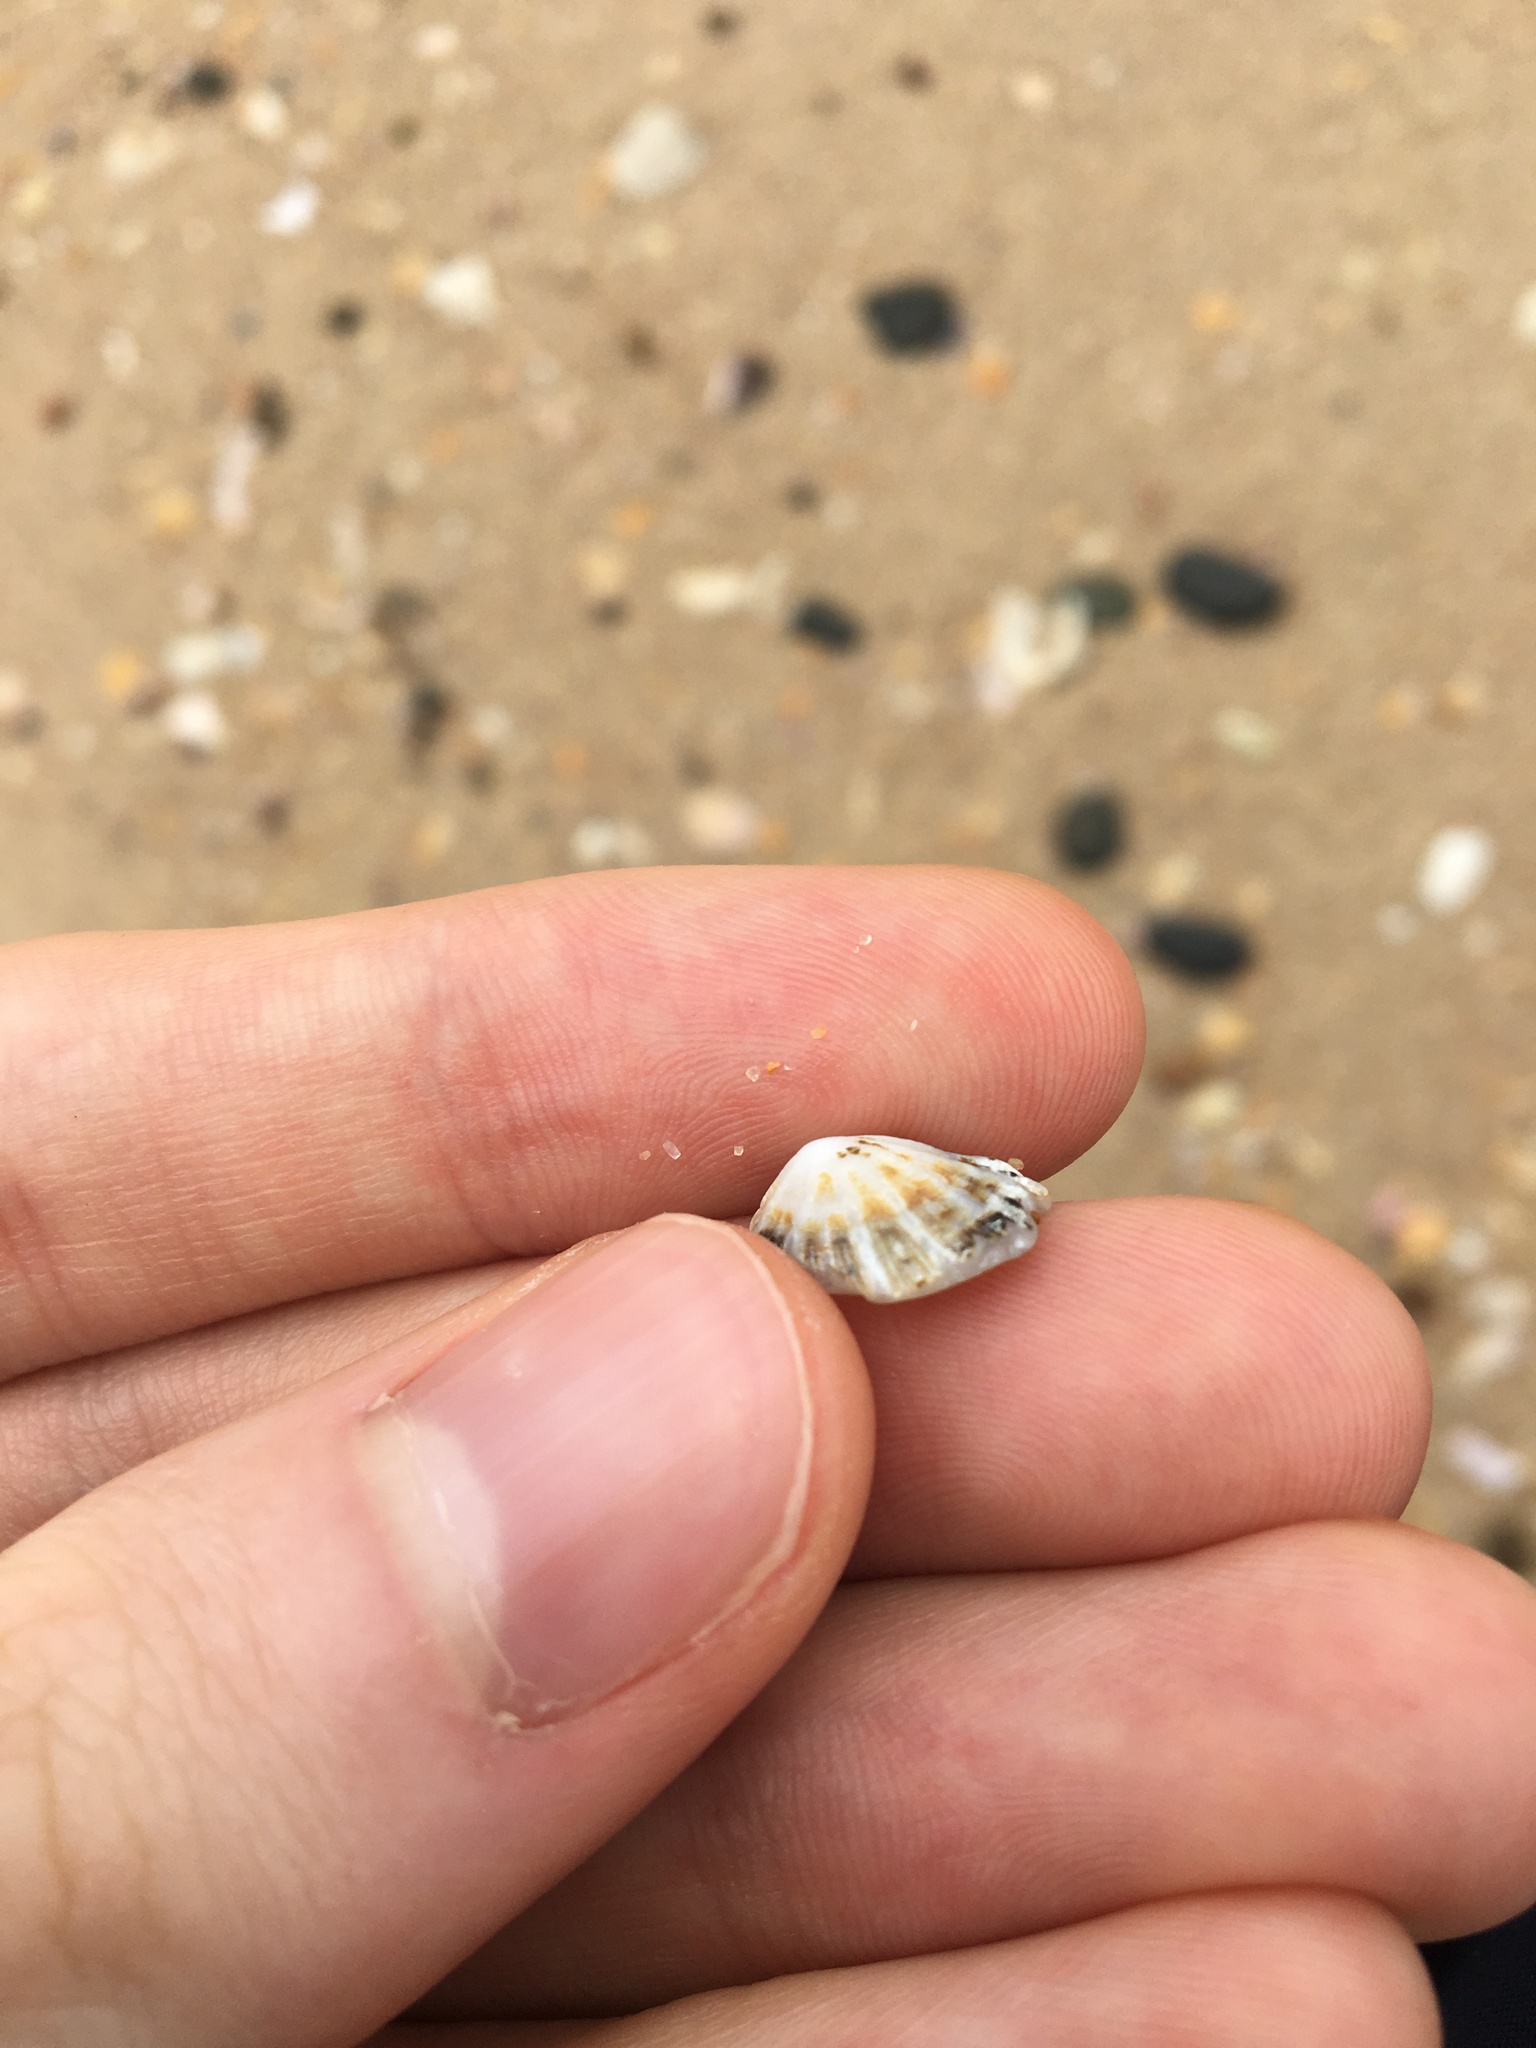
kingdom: Animalia
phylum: Mollusca
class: Gastropoda
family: Patellidae
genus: Scutellastra
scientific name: Scutellastra peronii
